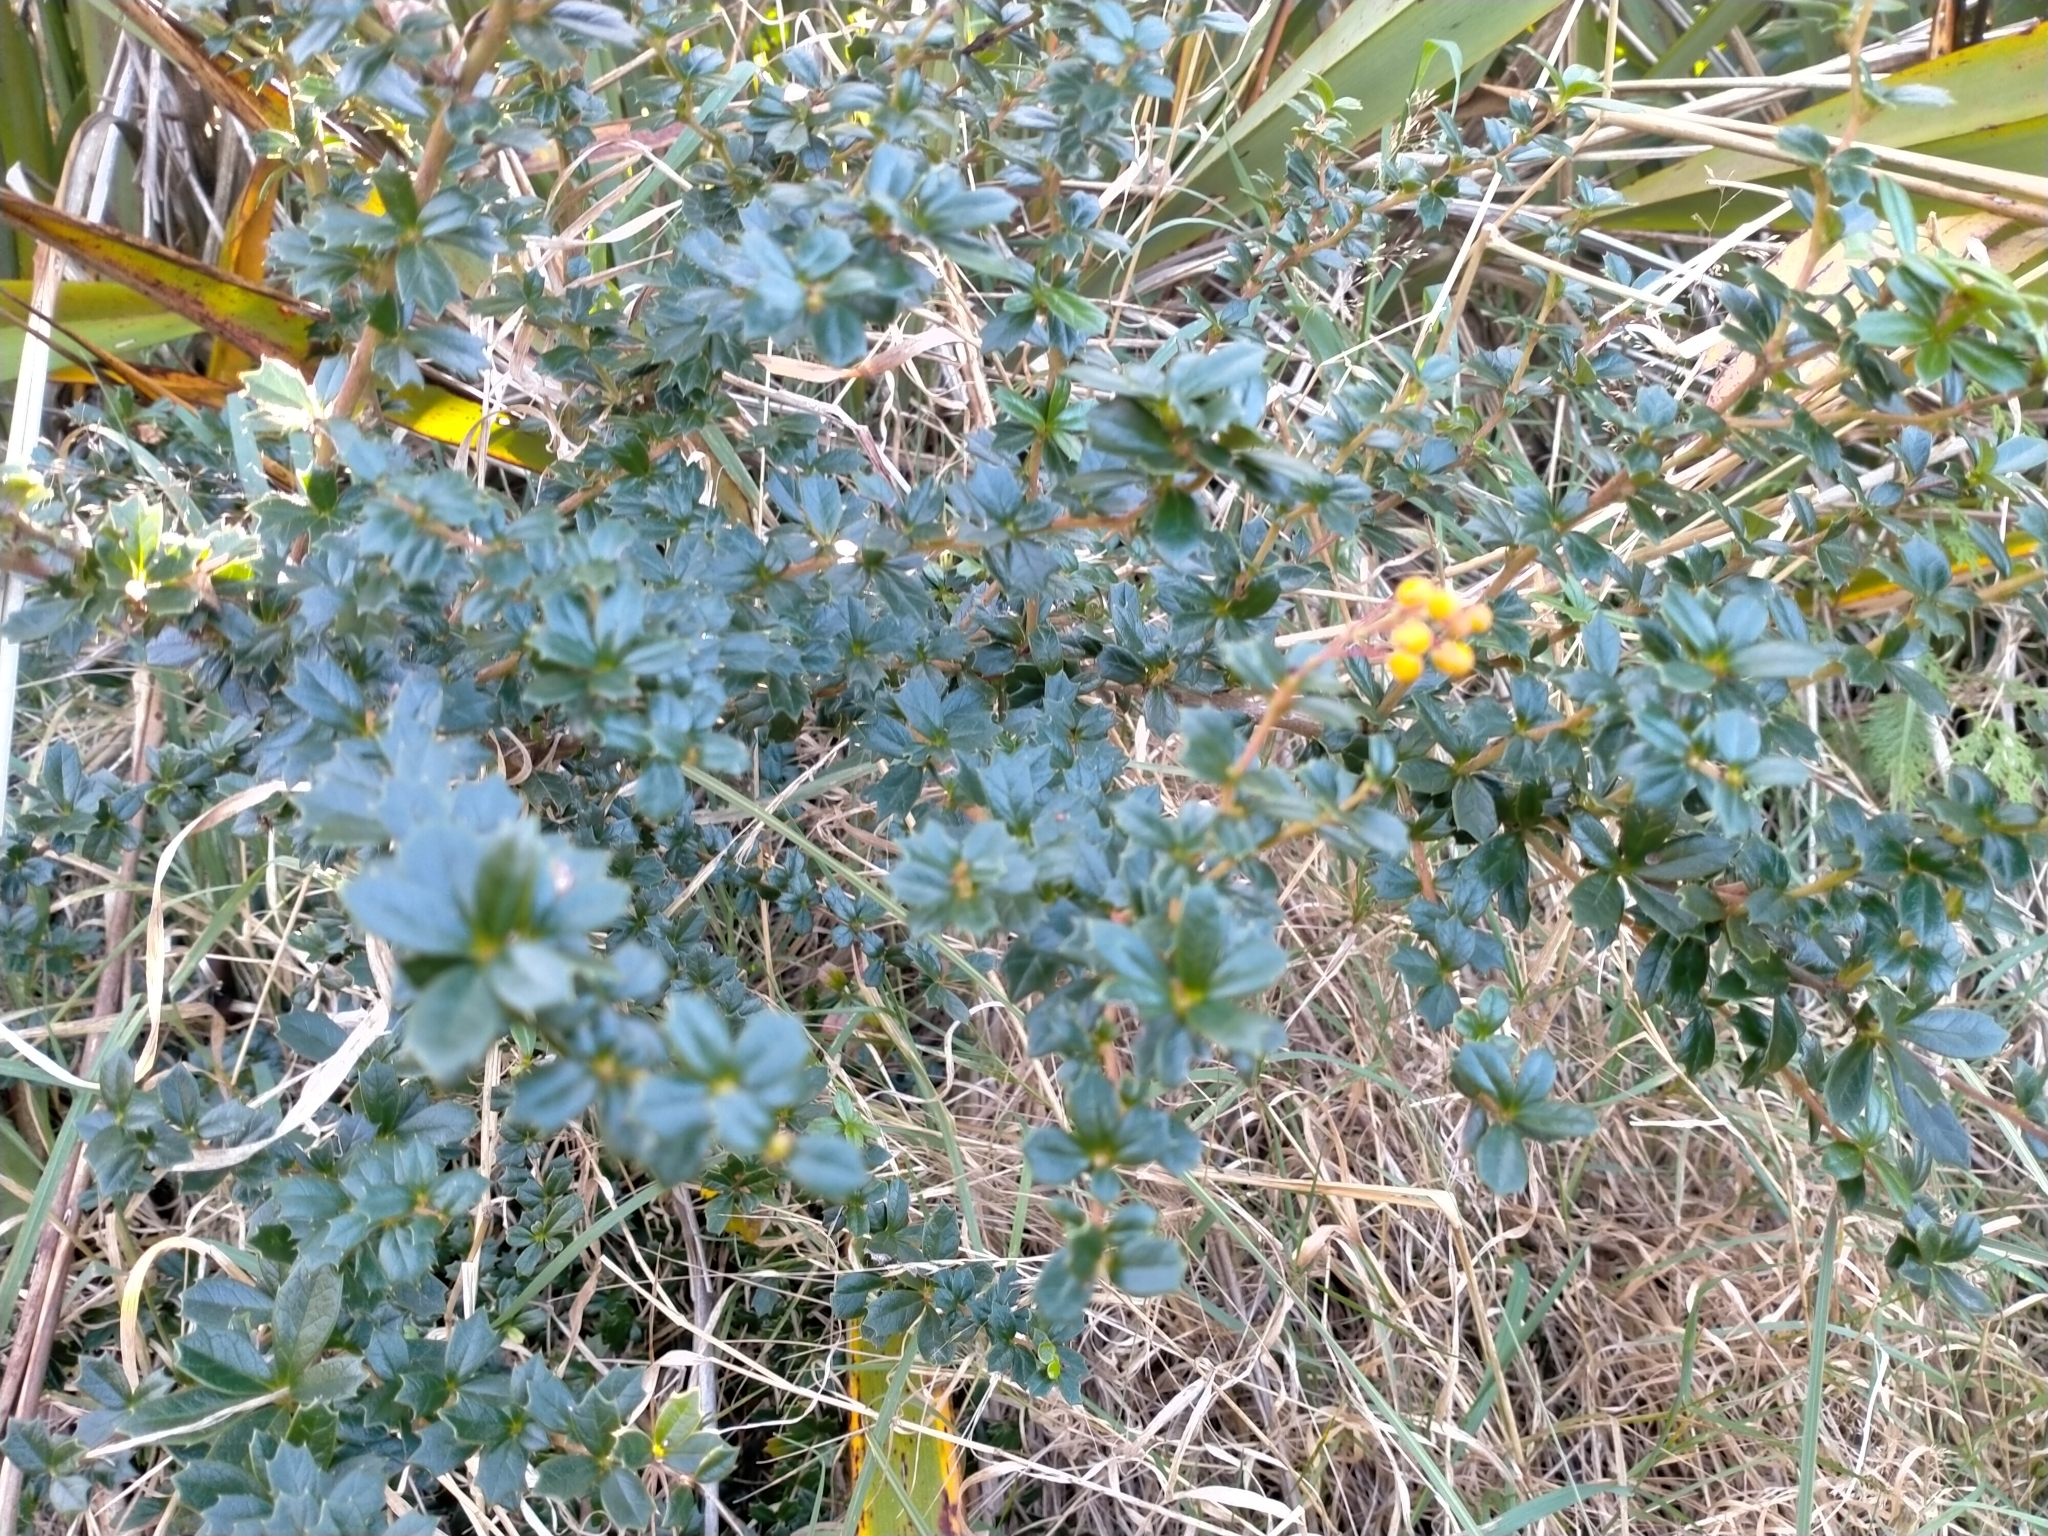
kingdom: Plantae
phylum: Tracheophyta
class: Magnoliopsida
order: Ranunculales
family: Berberidaceae
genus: Berberis
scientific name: Berberis darwinii
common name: Darwin's barberry
